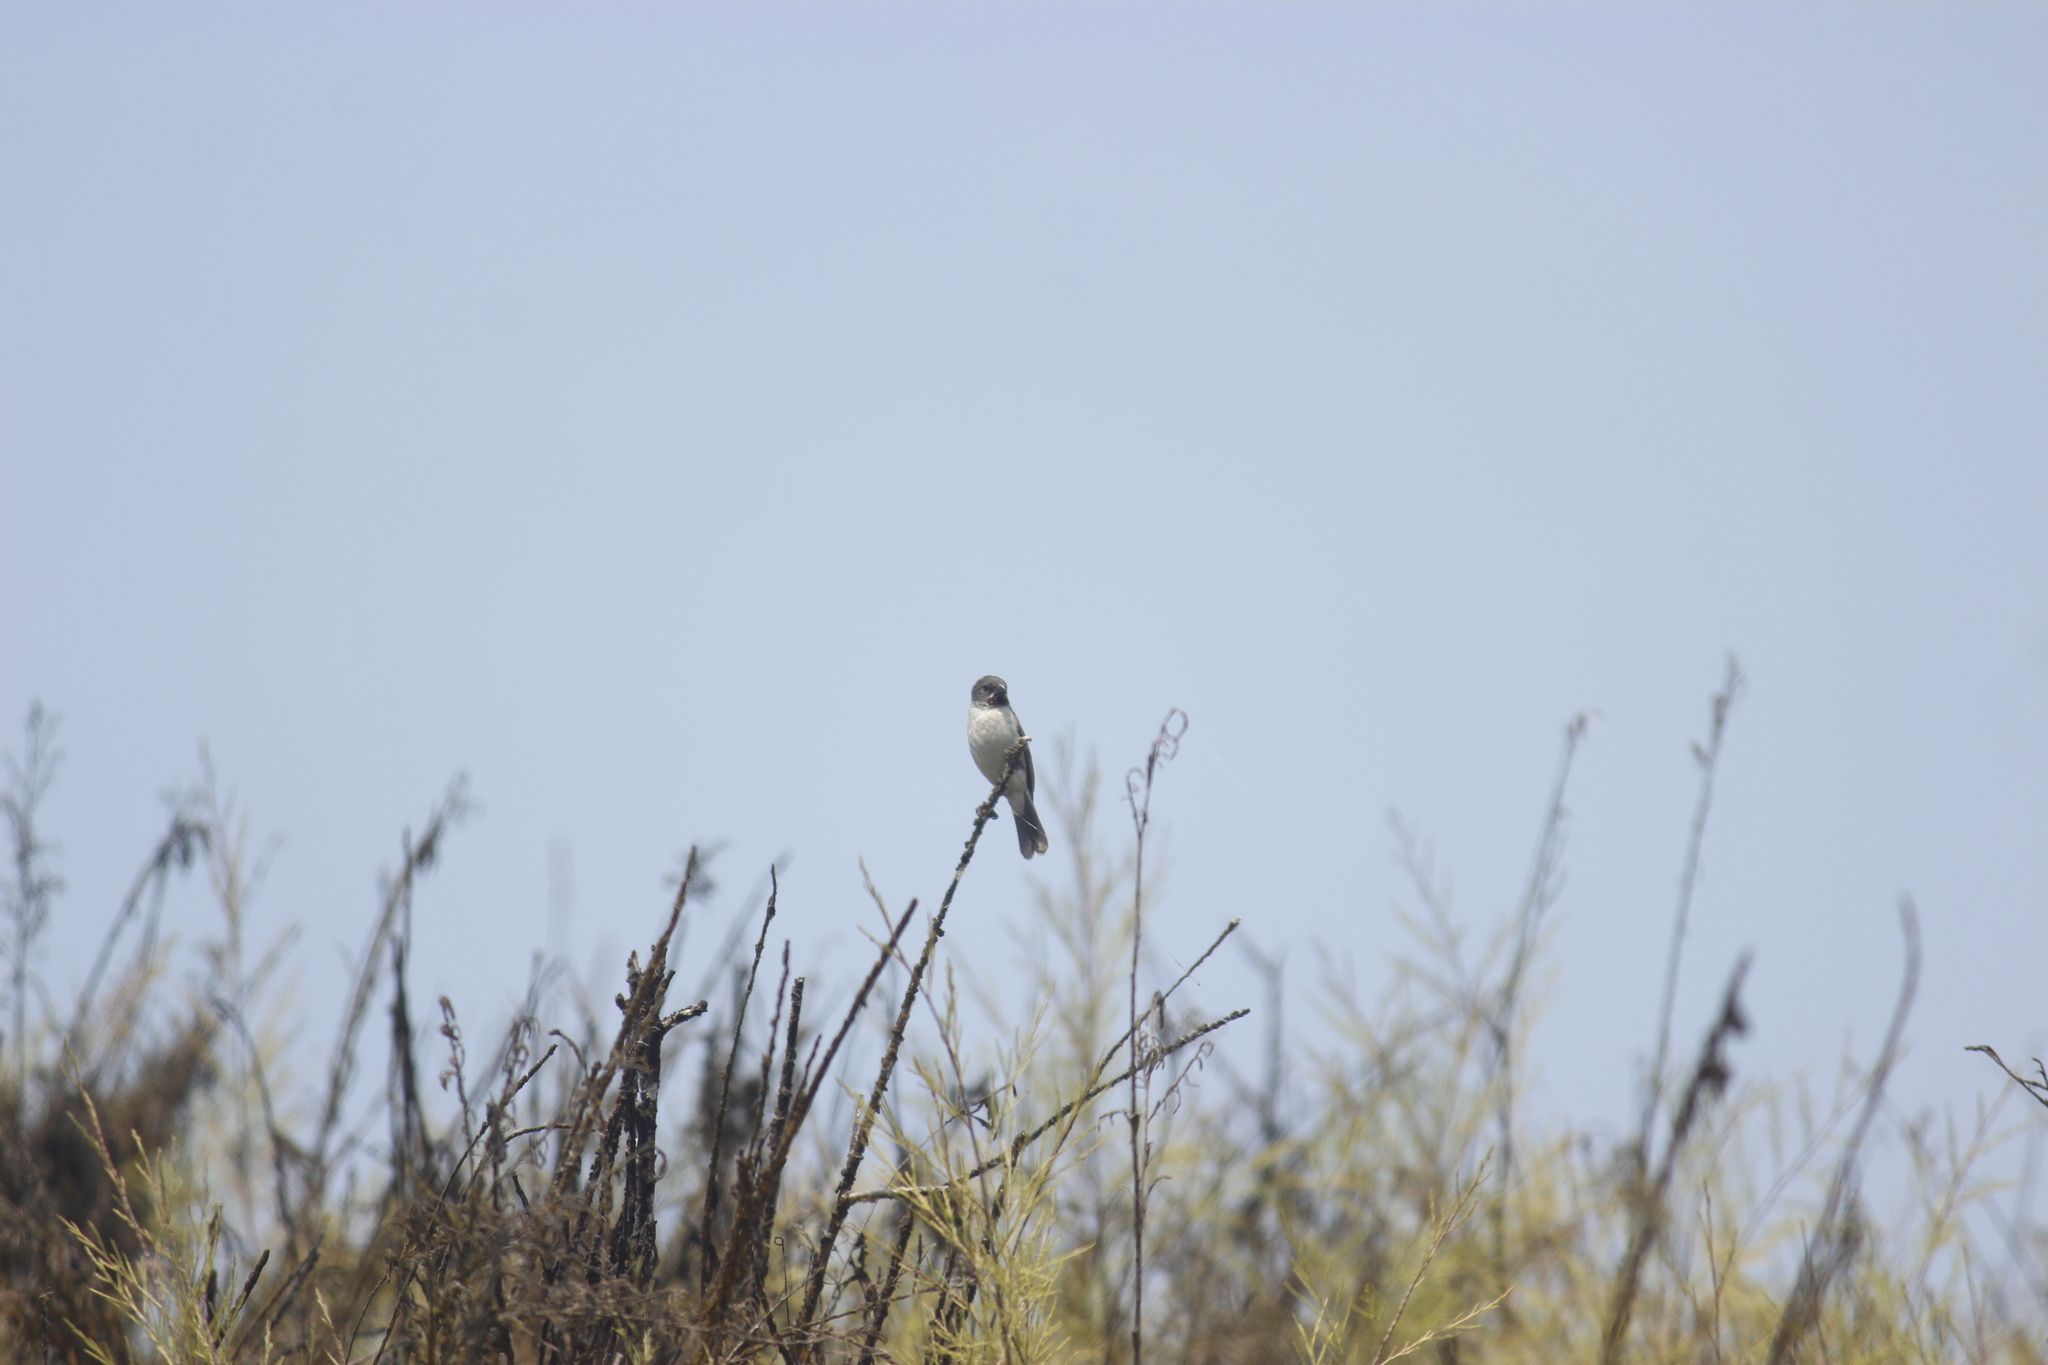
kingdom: Animalia
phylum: Chordata
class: Aves
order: Passeriformes
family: Thraupidae
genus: Sporophila
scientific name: Sporophila telasco
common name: Chestnut-throated seedeater
